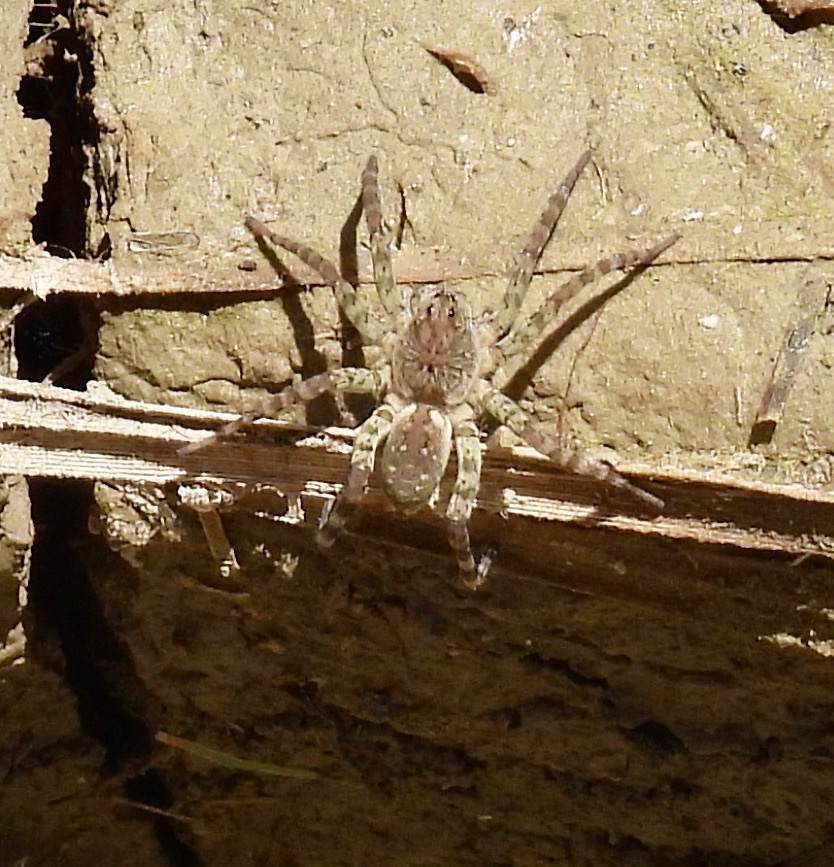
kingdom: Animalia
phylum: Arthropoda
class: Arachnida
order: Araneae
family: Lycosidae
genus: Arctosa
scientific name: Arctosa littoralis
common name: Wolf spiders
